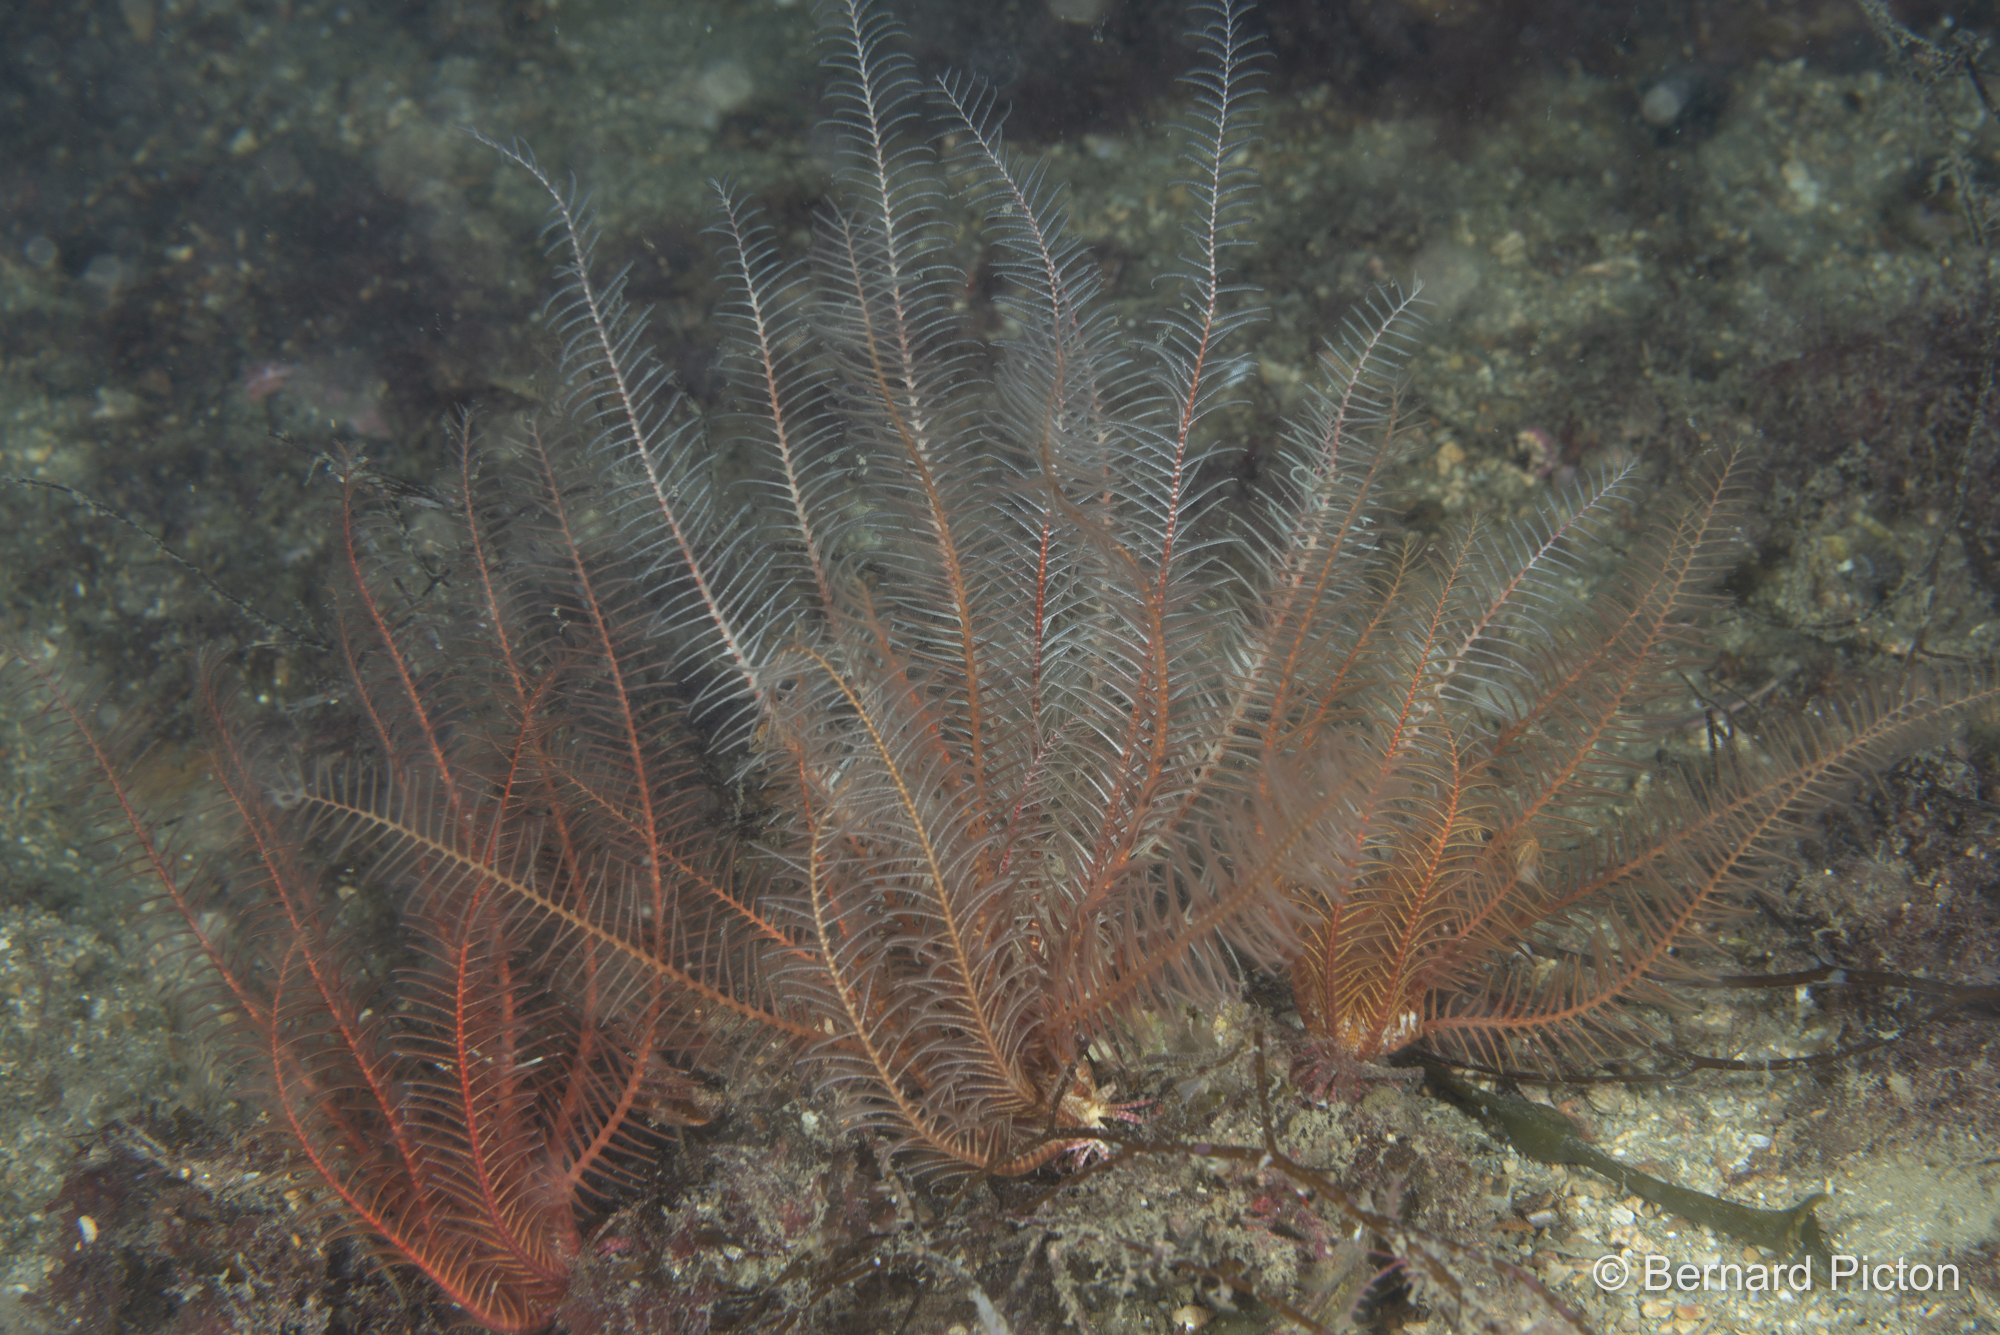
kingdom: Animalia
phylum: Echinodermata
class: Crinoidea
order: Comatulida
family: Antedonidae
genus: Antedon
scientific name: Antedon bifida
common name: Rosy feather-star
